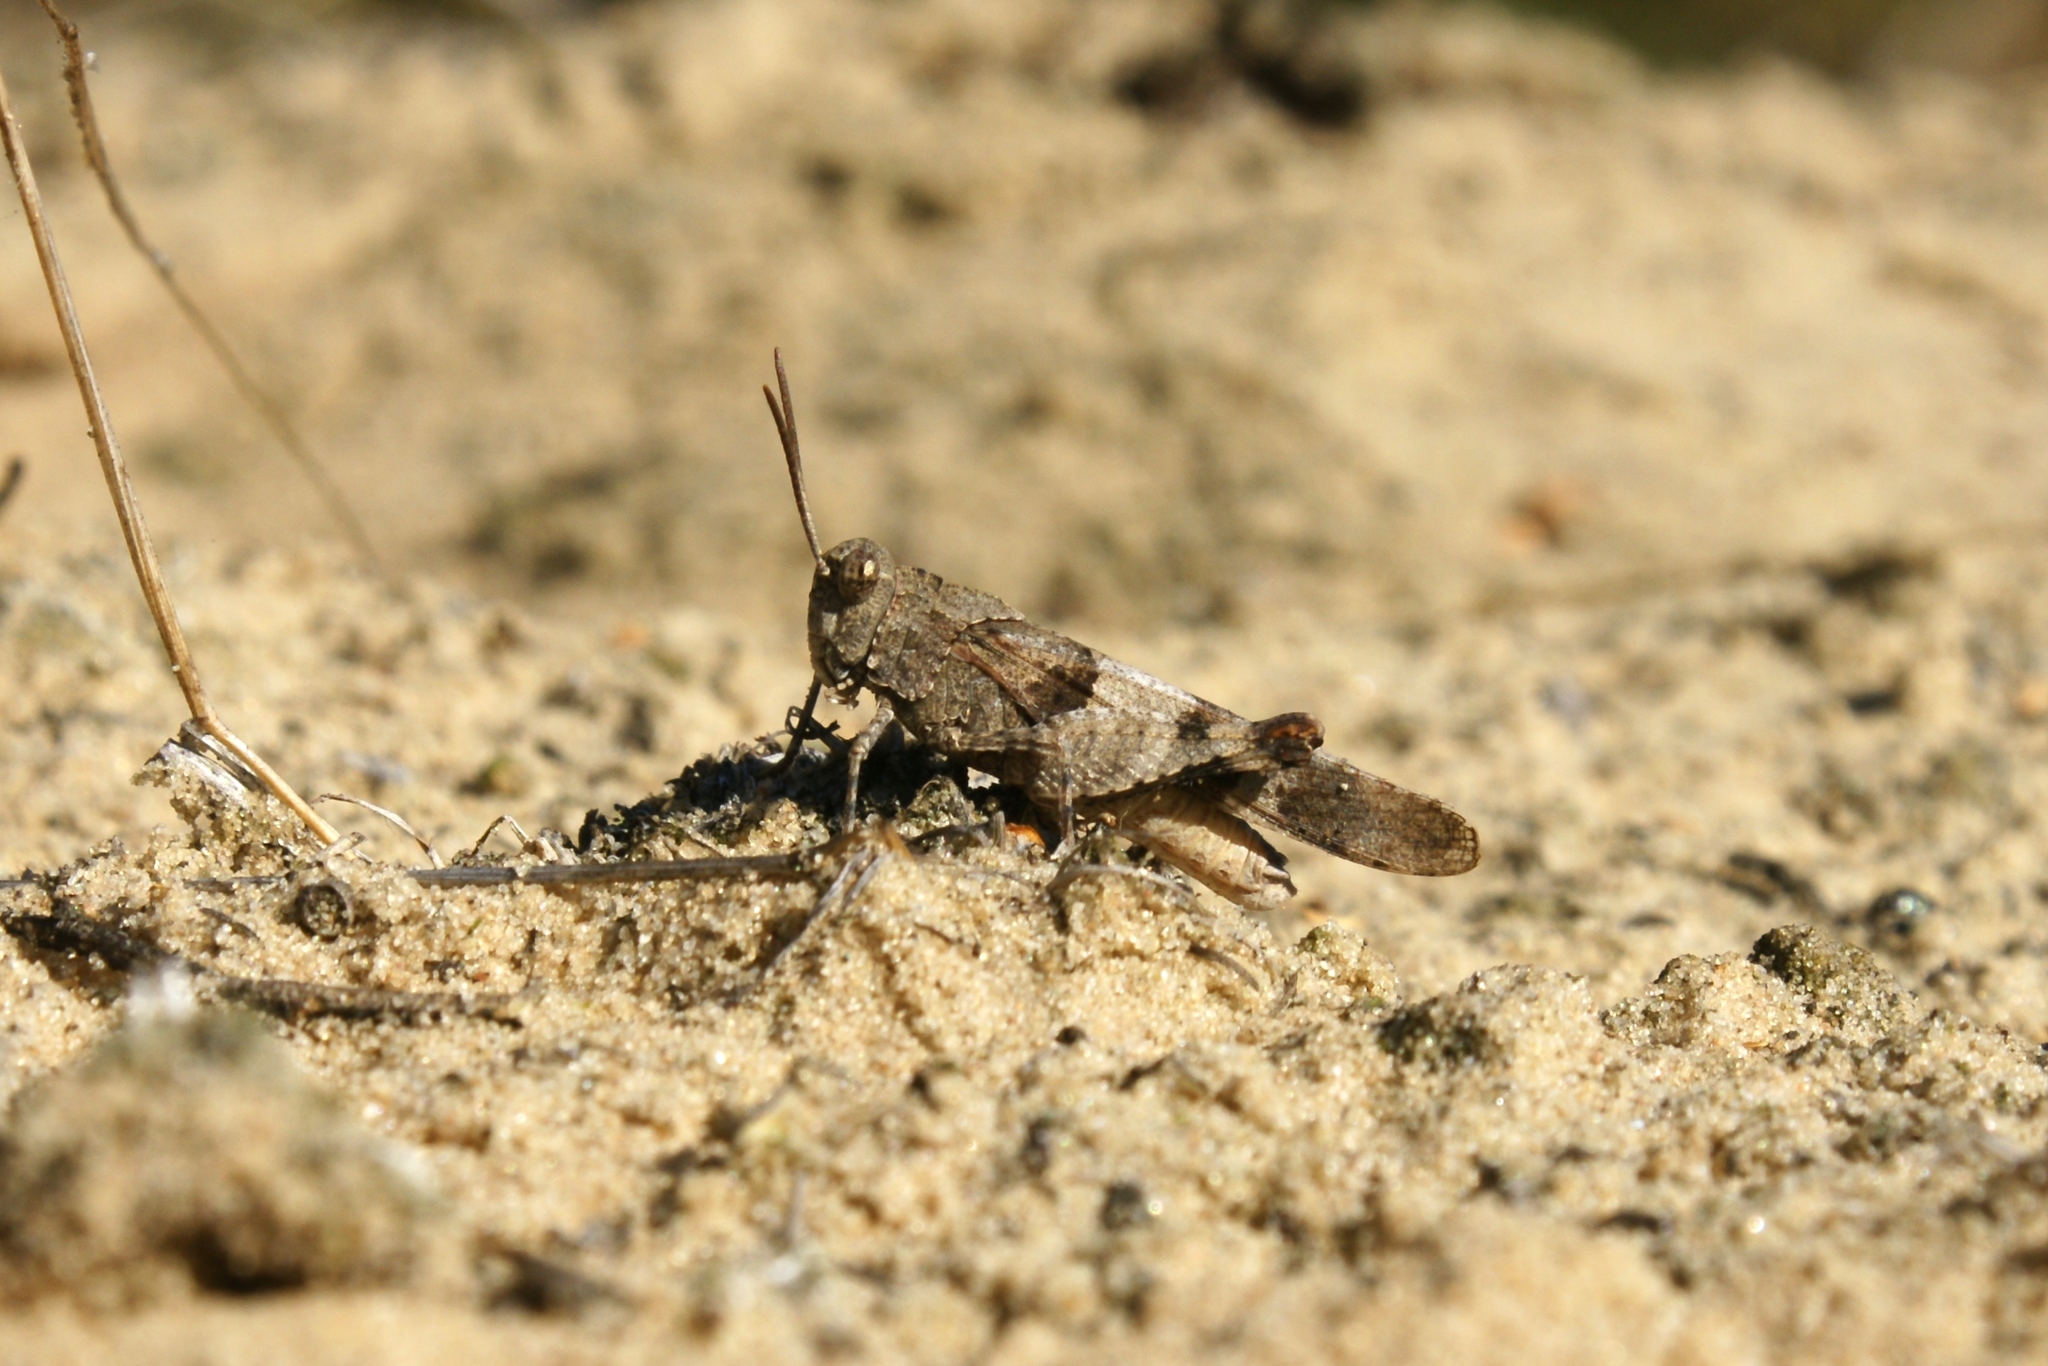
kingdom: Animalia
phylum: Arthropoda
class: Insecta
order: Orthoptera
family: Acrididae
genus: Oedipoda
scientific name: Oedipoda caerulescens
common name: Blue-winged grasshopper
